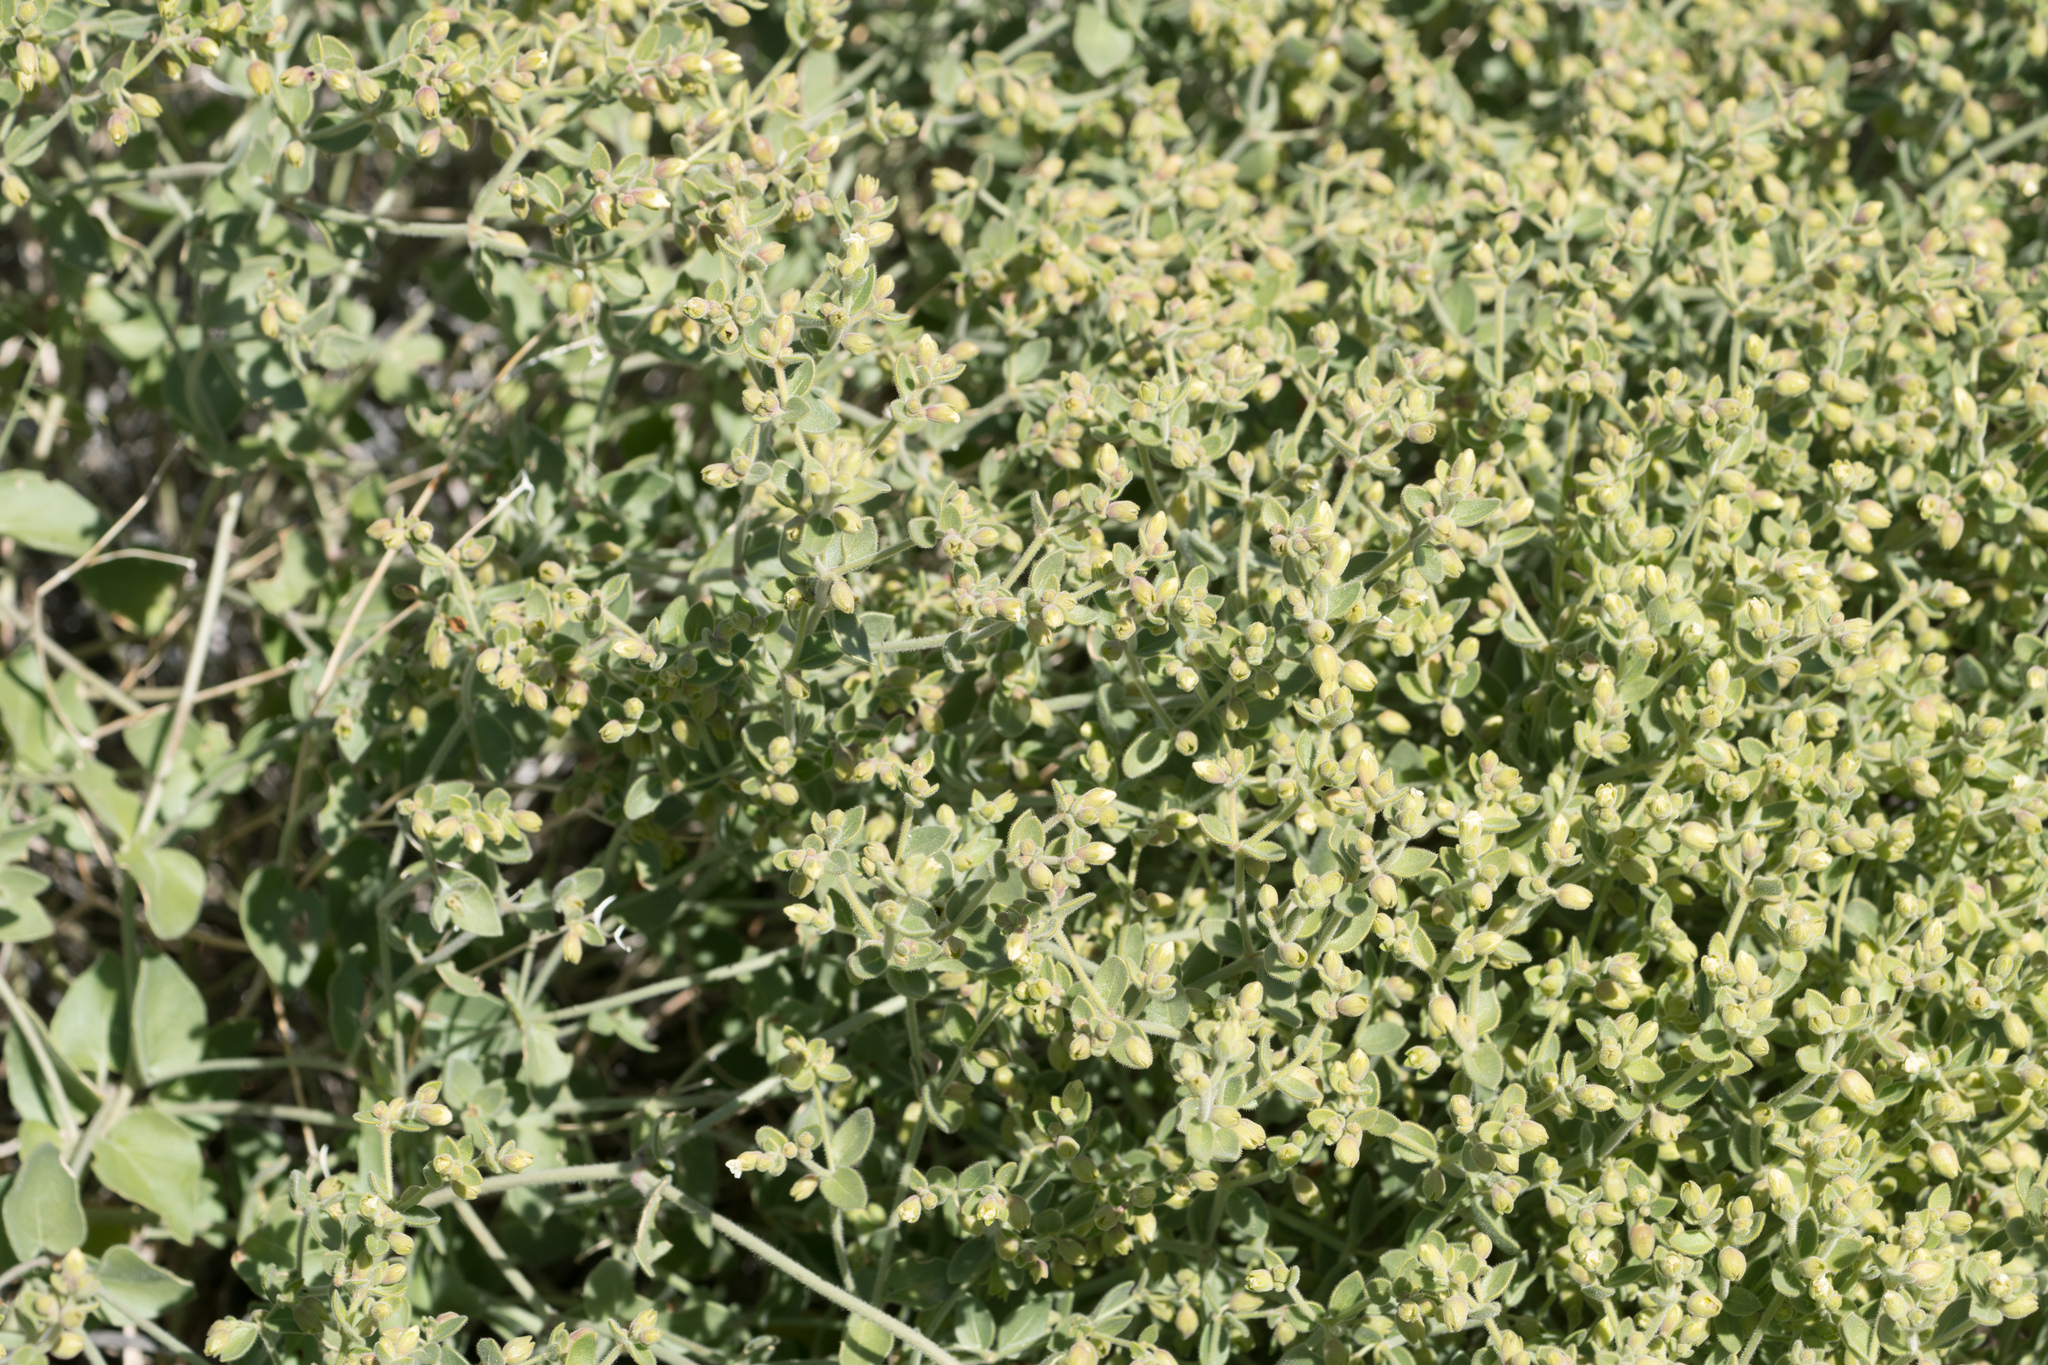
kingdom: Plantae
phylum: Tracheophyta
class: Magnoliopsida
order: Caryophyllales
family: Nyctaginaceae
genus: Mirabilis
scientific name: Mirabilis laevis
